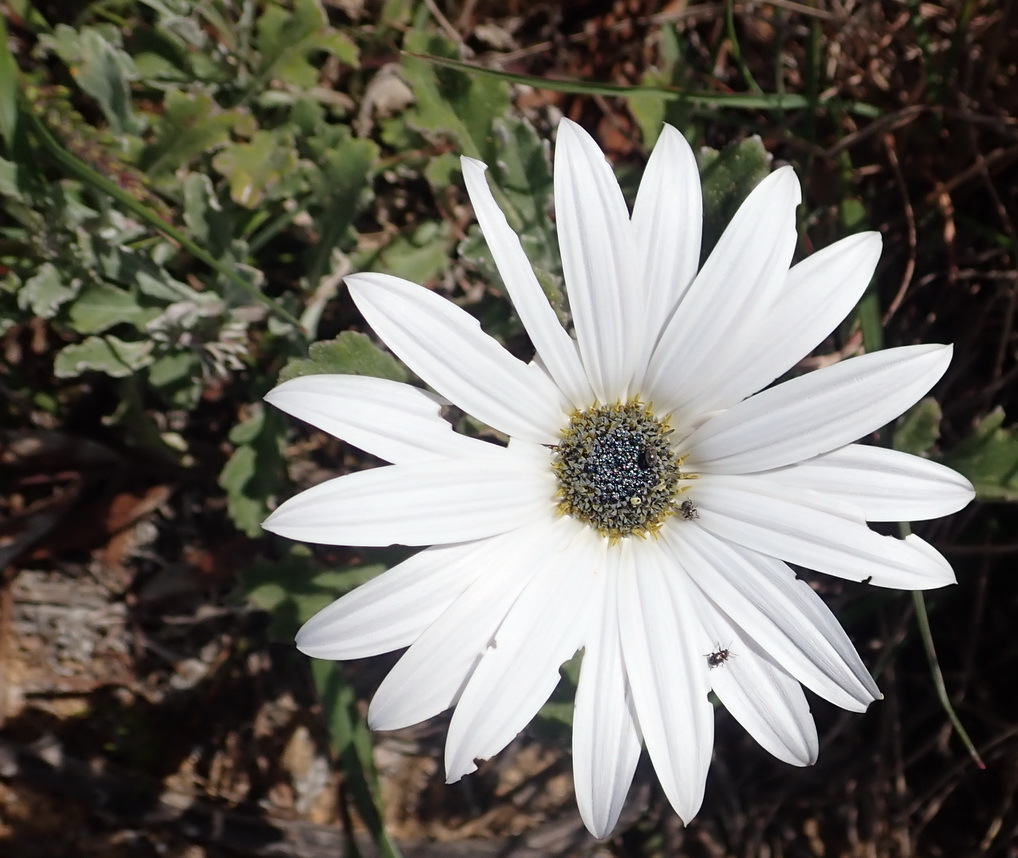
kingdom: Plantae
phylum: Tracheophyta
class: Magnoliopsida
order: Asterales
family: Asteraceae
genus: Arctotis
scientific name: Arctotis pinnatifida
